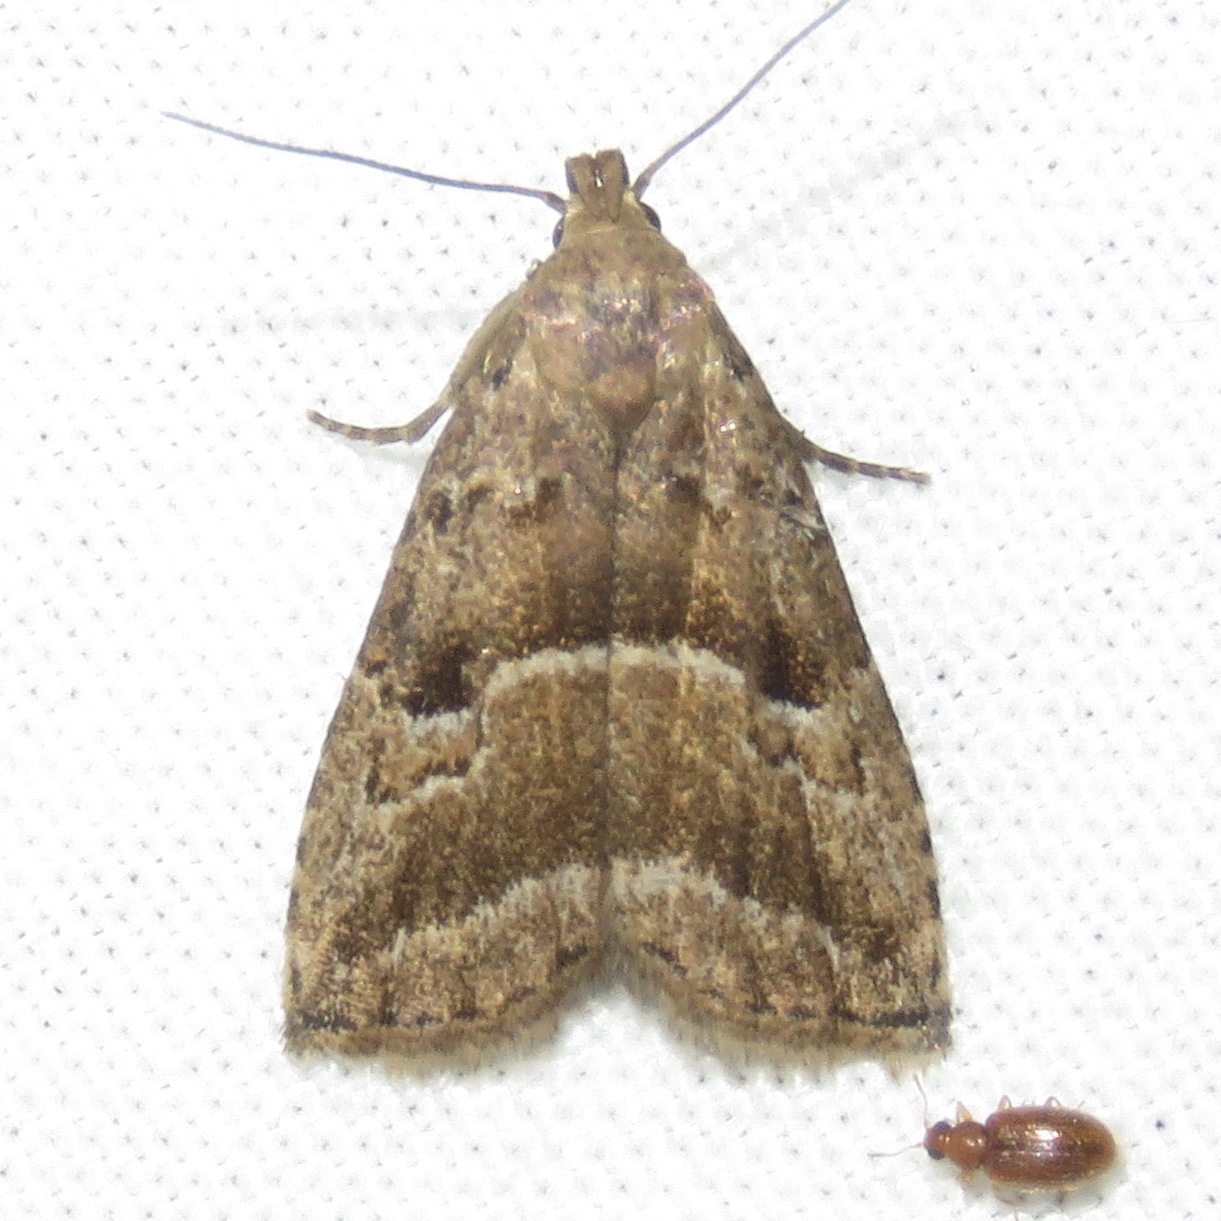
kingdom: Animalia
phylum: Arthropoda
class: Insecta
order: Lepidoptera
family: Erebidae
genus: Hypenodes
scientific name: Hypenodes caducus
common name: Large hypenodes moth
